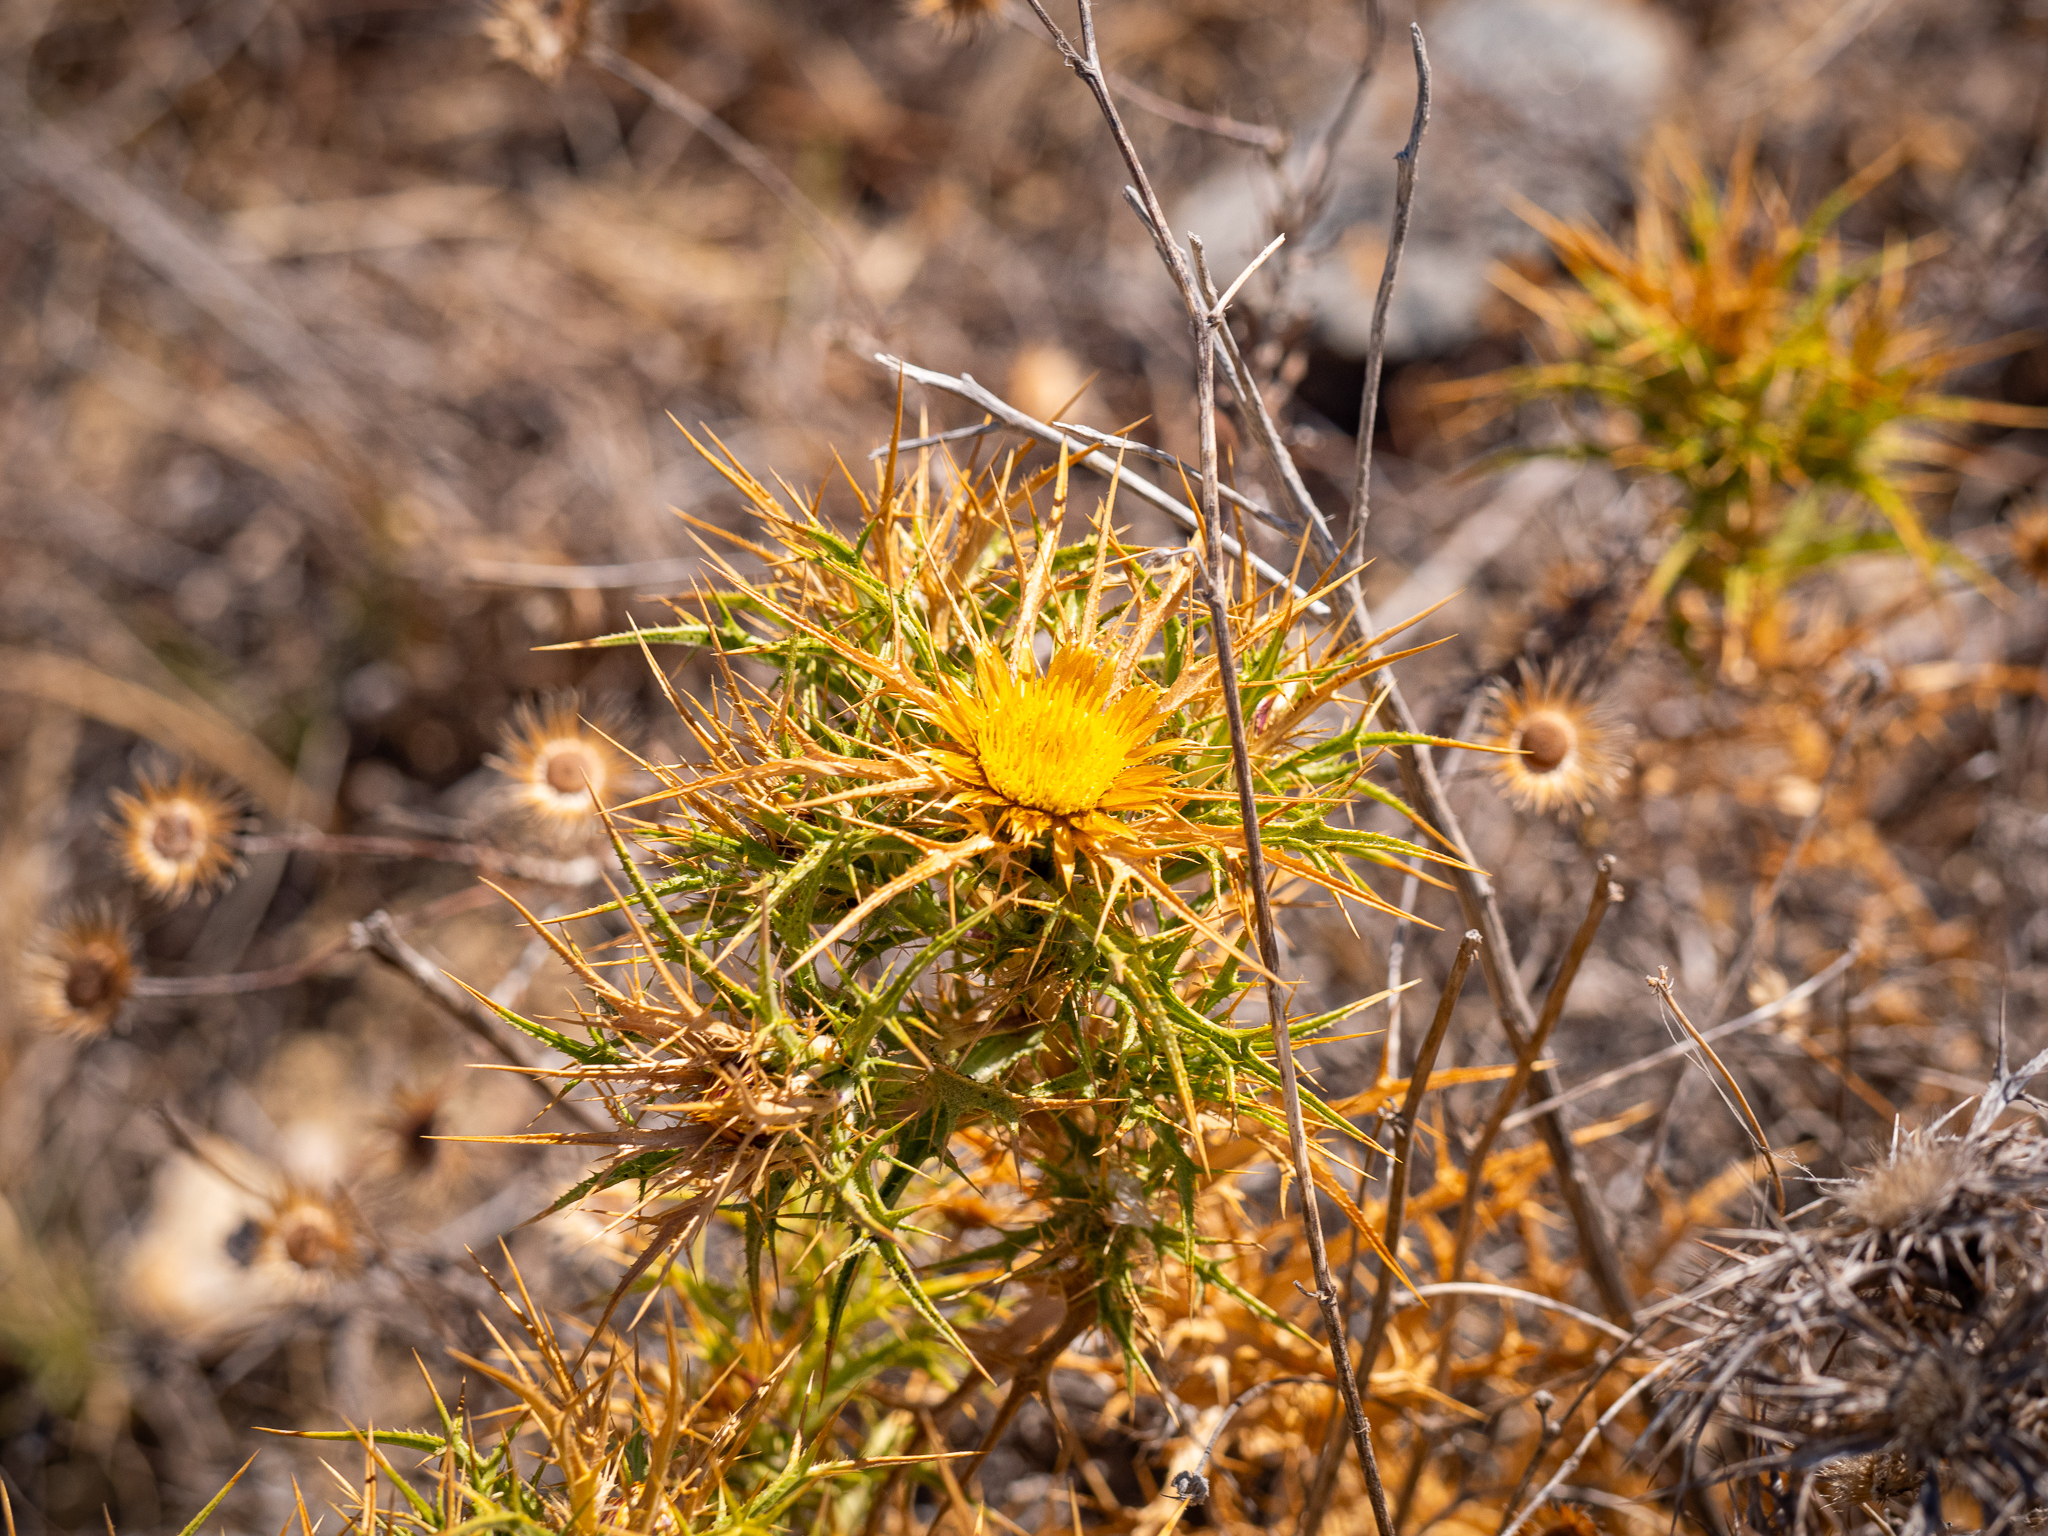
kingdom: Plantae
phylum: Tracheophyta
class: Magnoliopsida
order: Asterales
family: Asteraceae
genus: Carlina
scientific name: Carlina graeca
